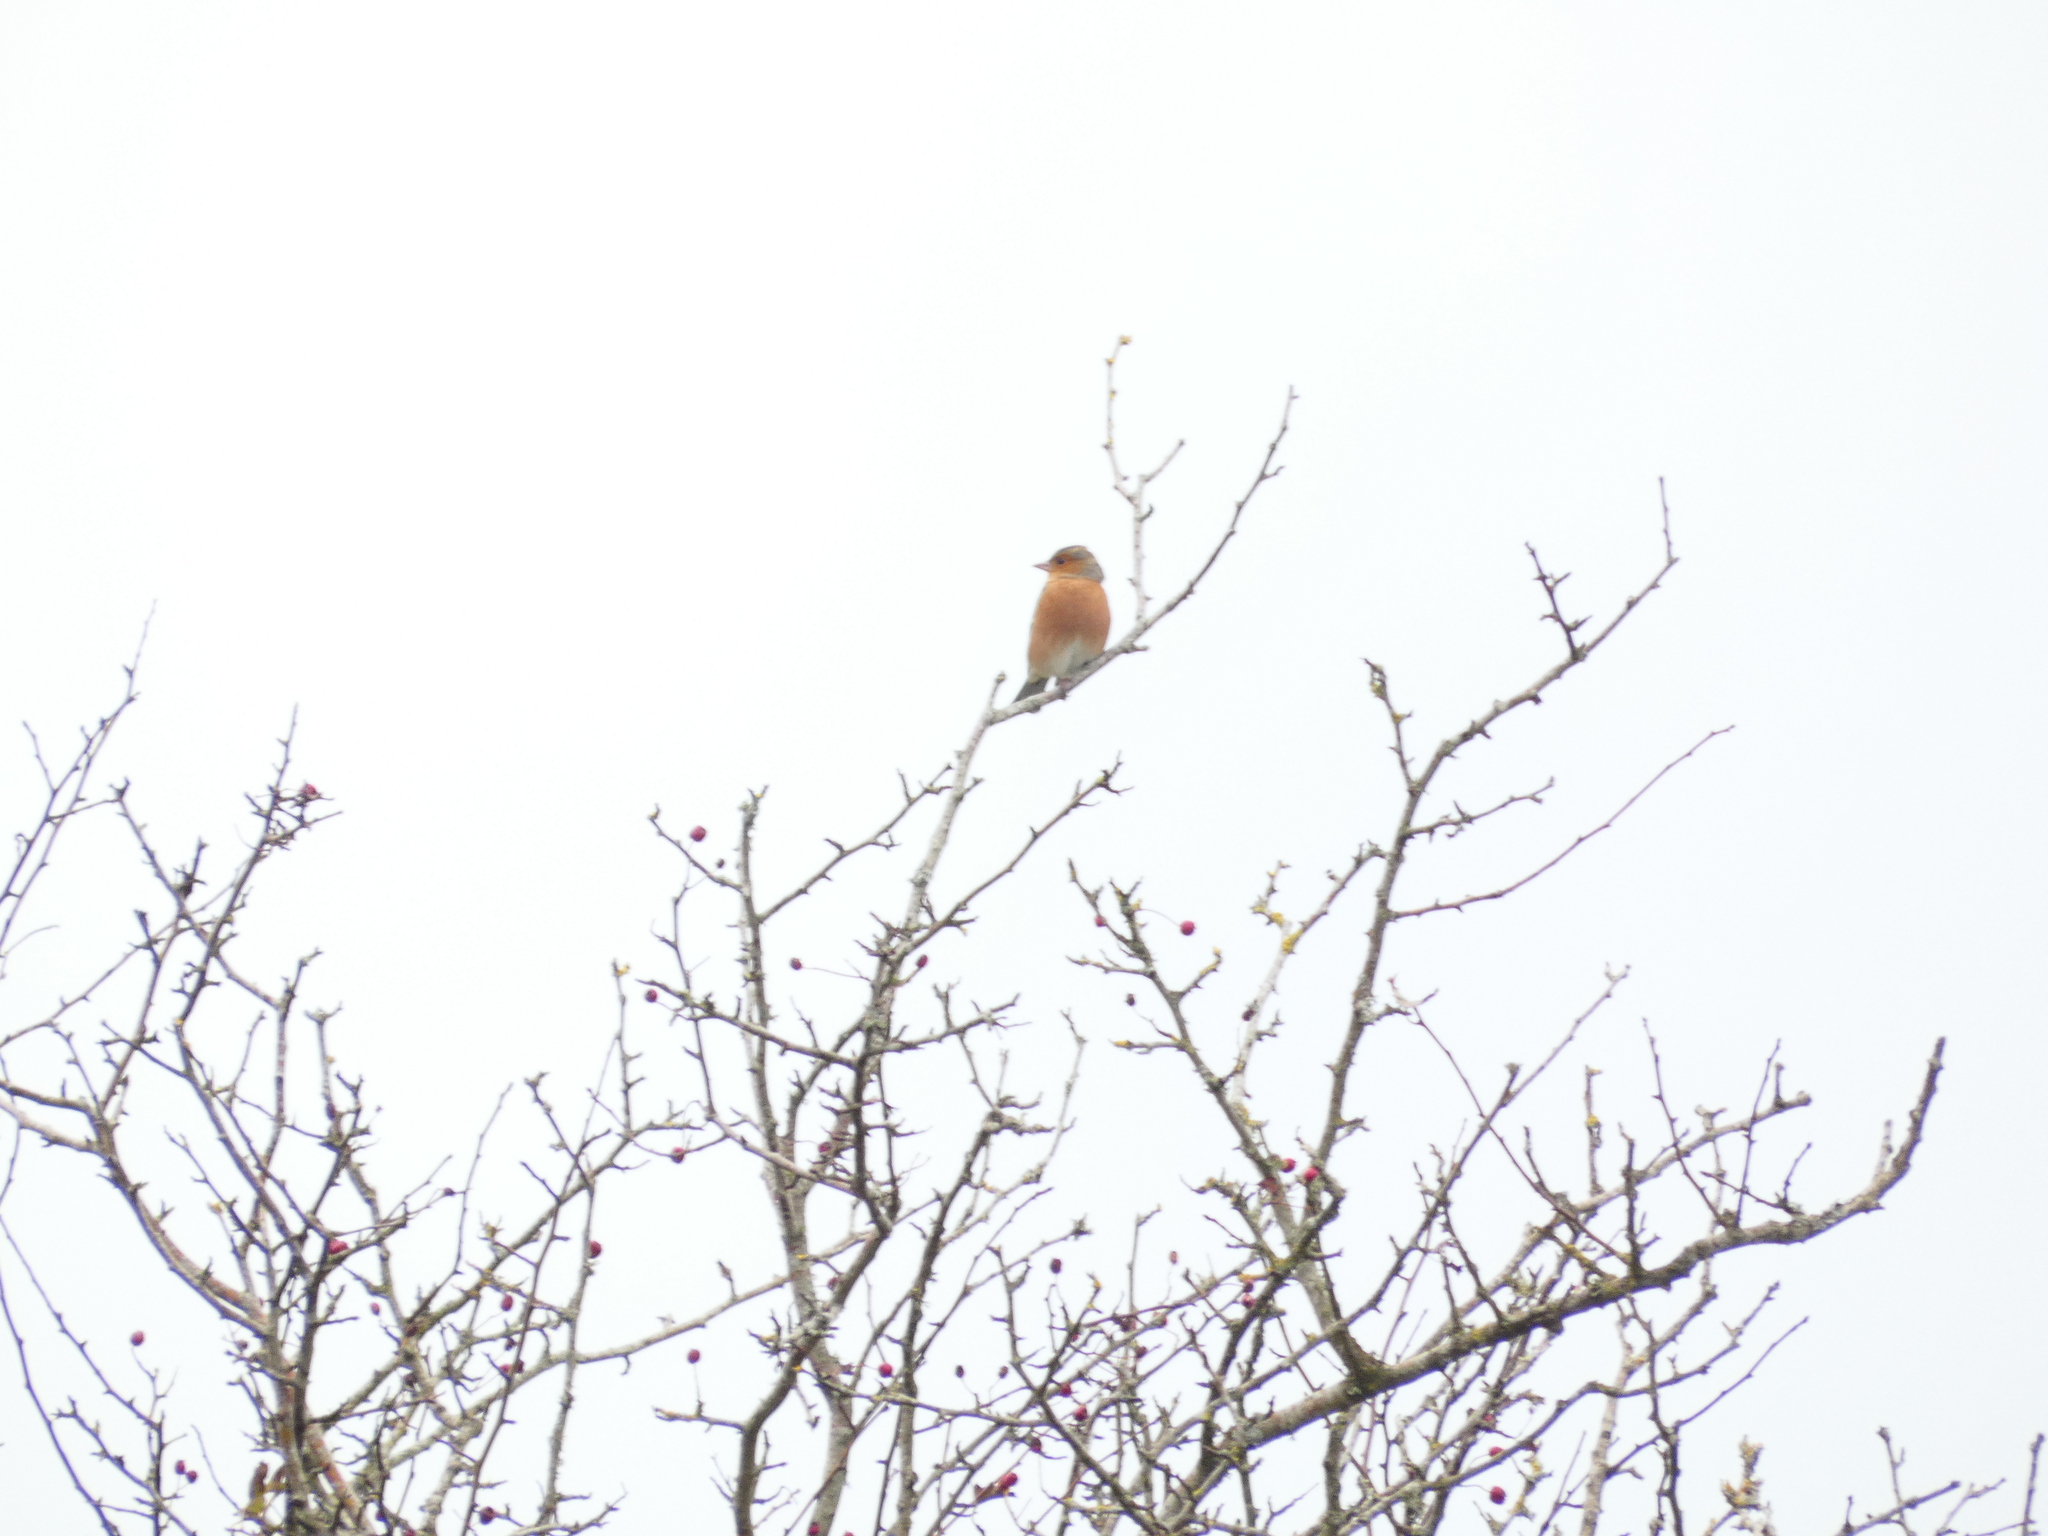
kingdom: Animalia
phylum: Chordata
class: Aves
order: Passeriformes
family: Fringillidae
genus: Fringilla
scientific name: Fringilla coelebs
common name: Common chaffinch
